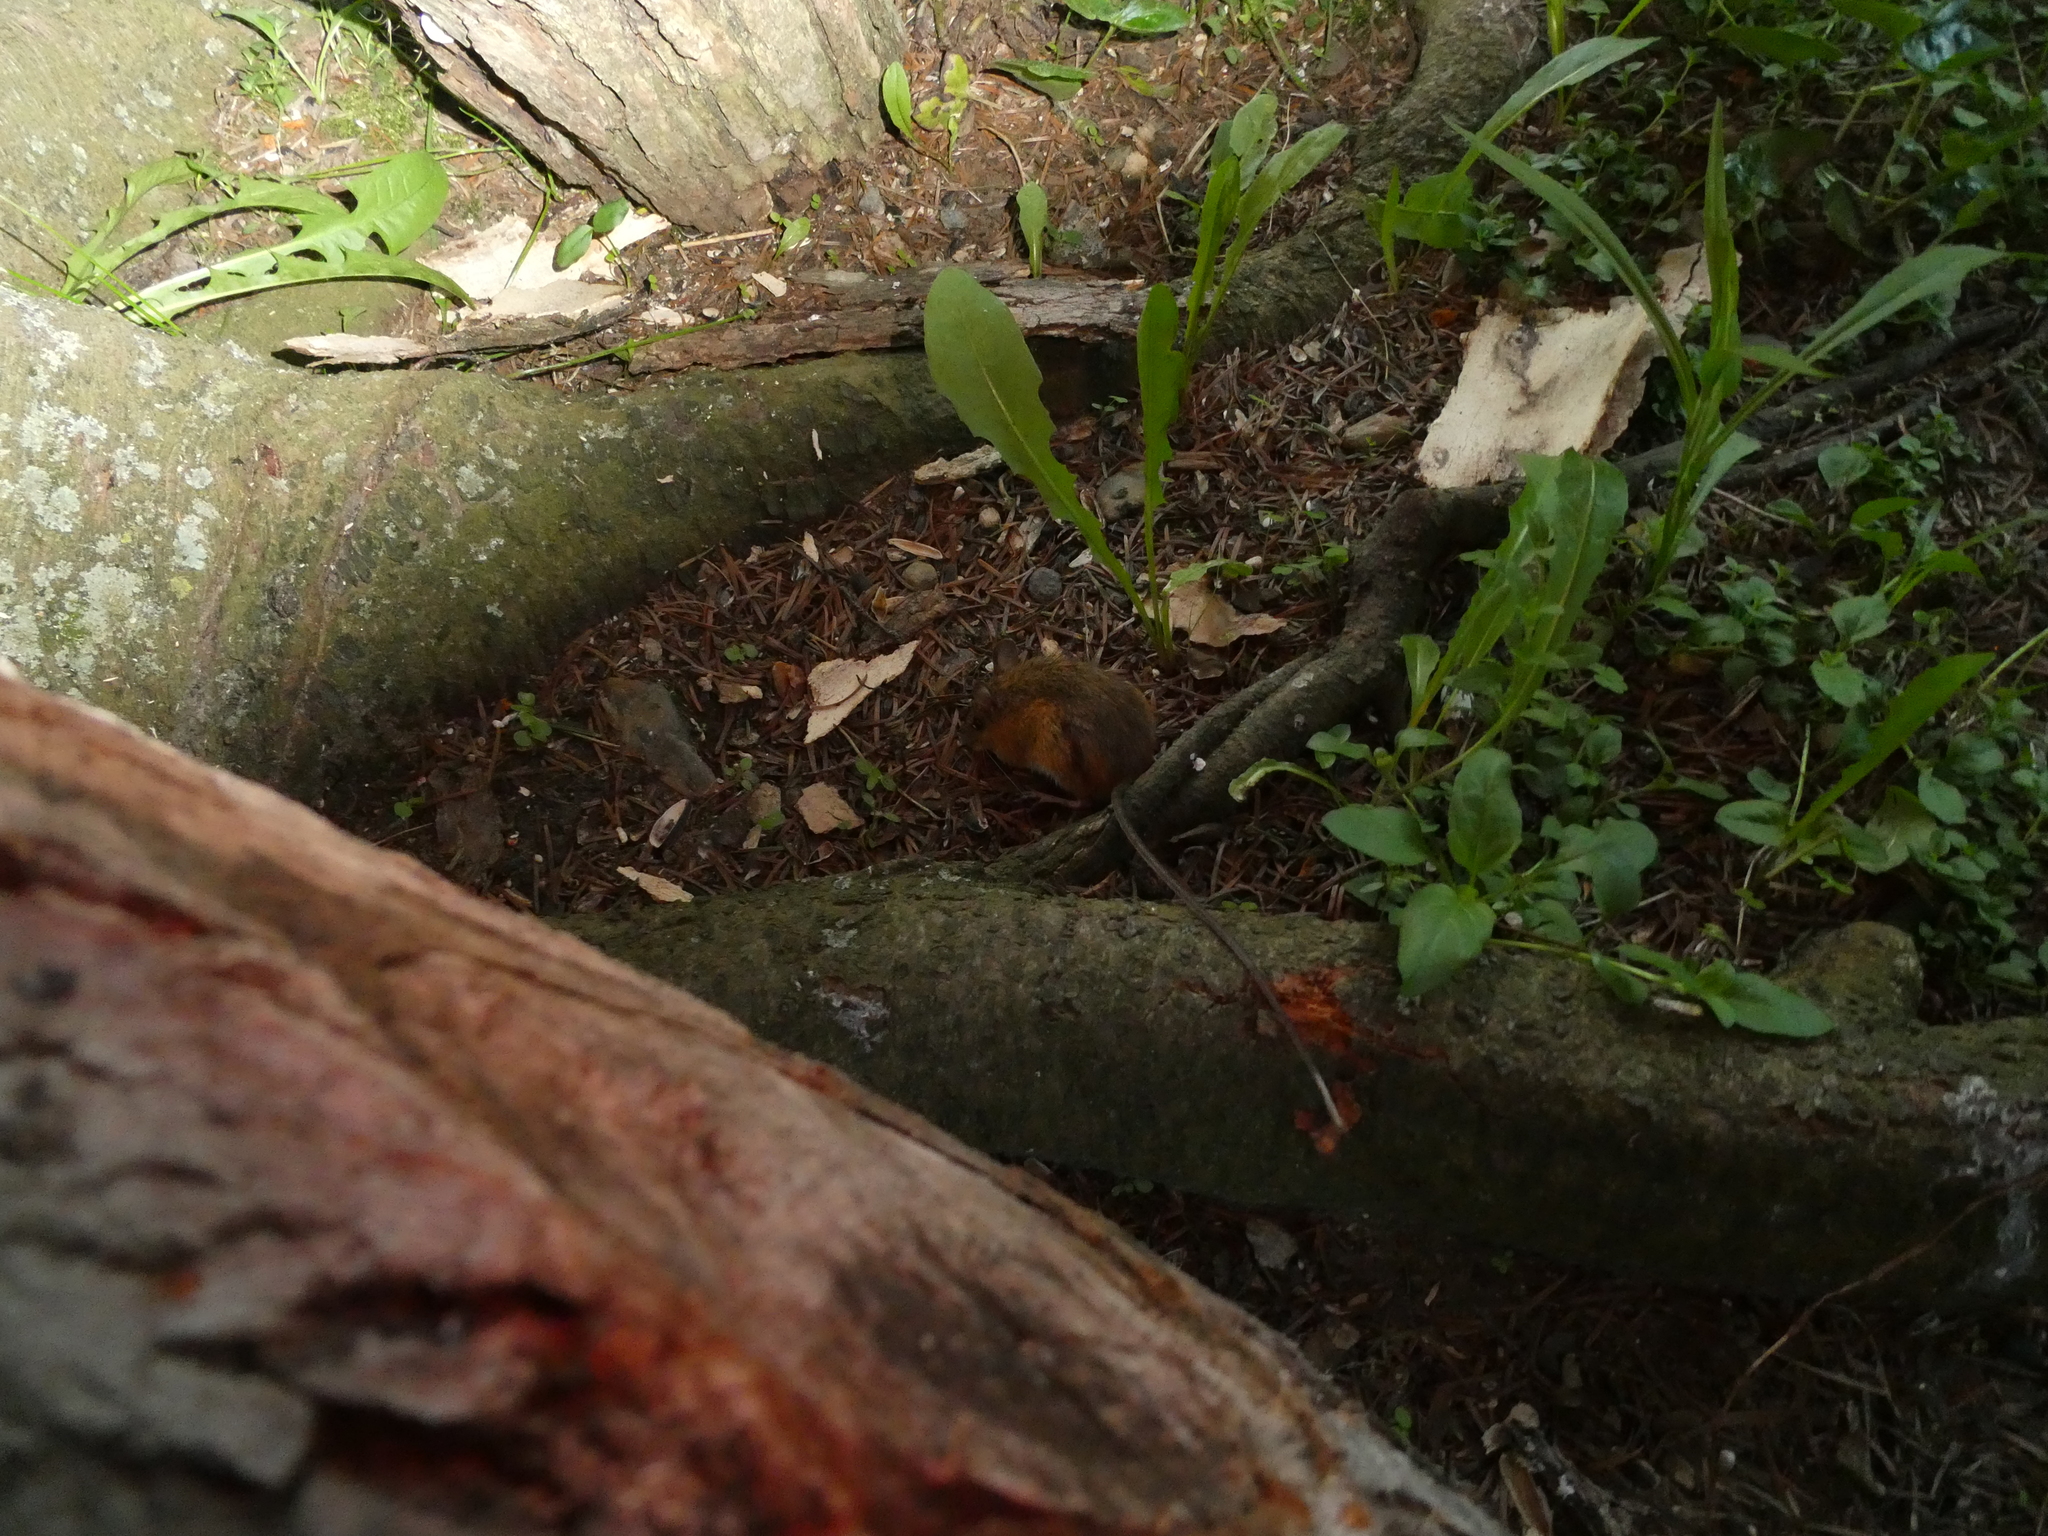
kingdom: Animalia
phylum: Chordata
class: Mammalia
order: Rodentia
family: Dipodidae
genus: Napaeozapus
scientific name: Napaeozapus insignis
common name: Woodland jumping mouse
